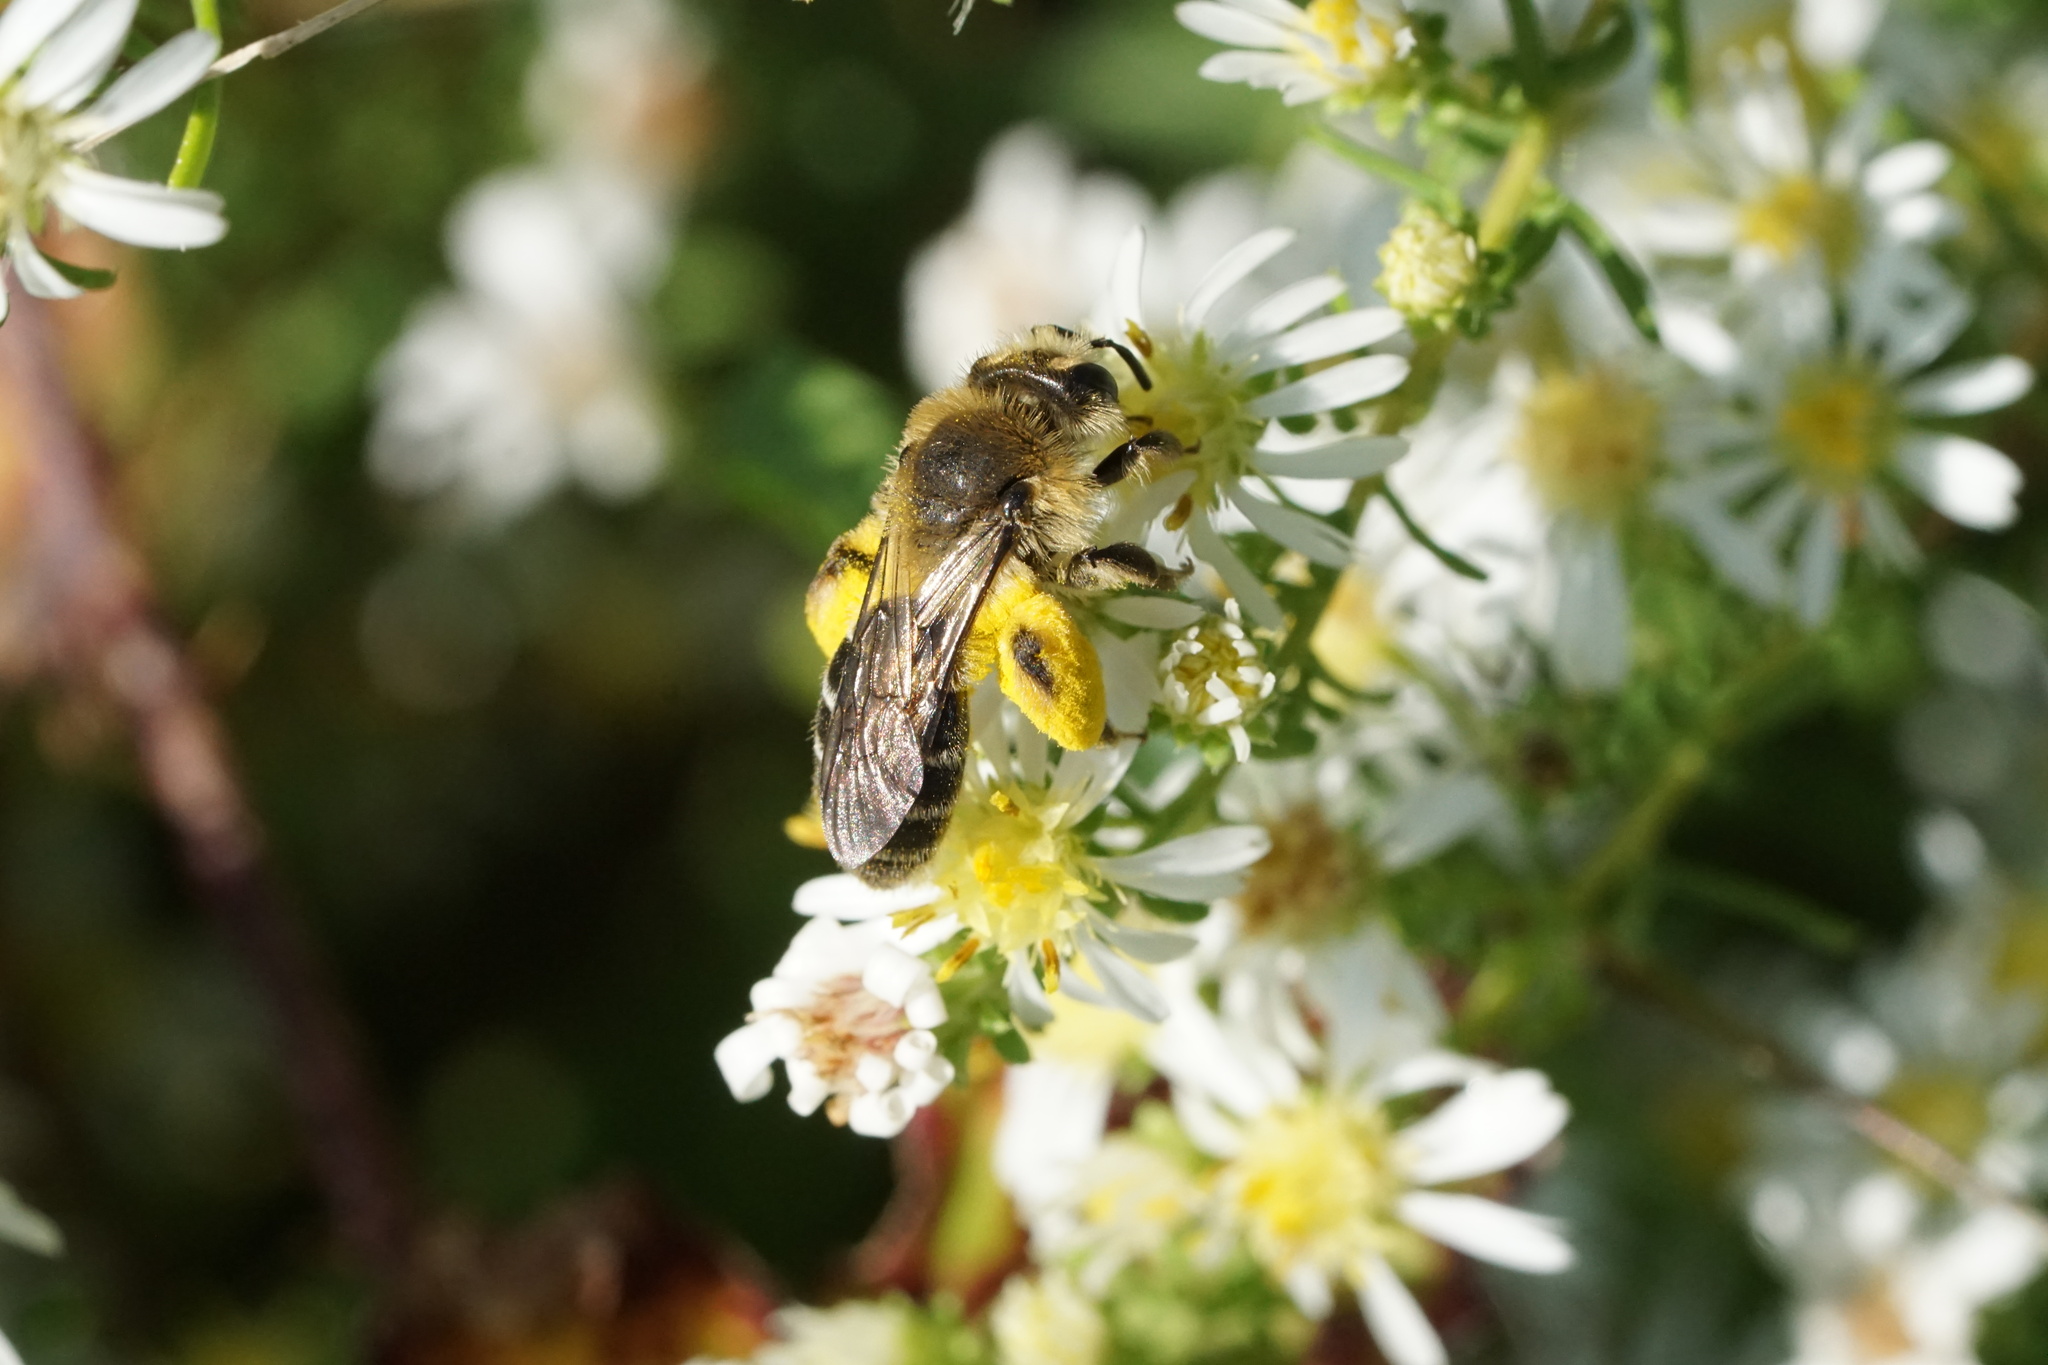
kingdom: Animalia
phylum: Arthropoda
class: Insecta
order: Hymenoptera
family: Andrenidae
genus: Andrena
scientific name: Andrena asteris
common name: Aster mining bee
